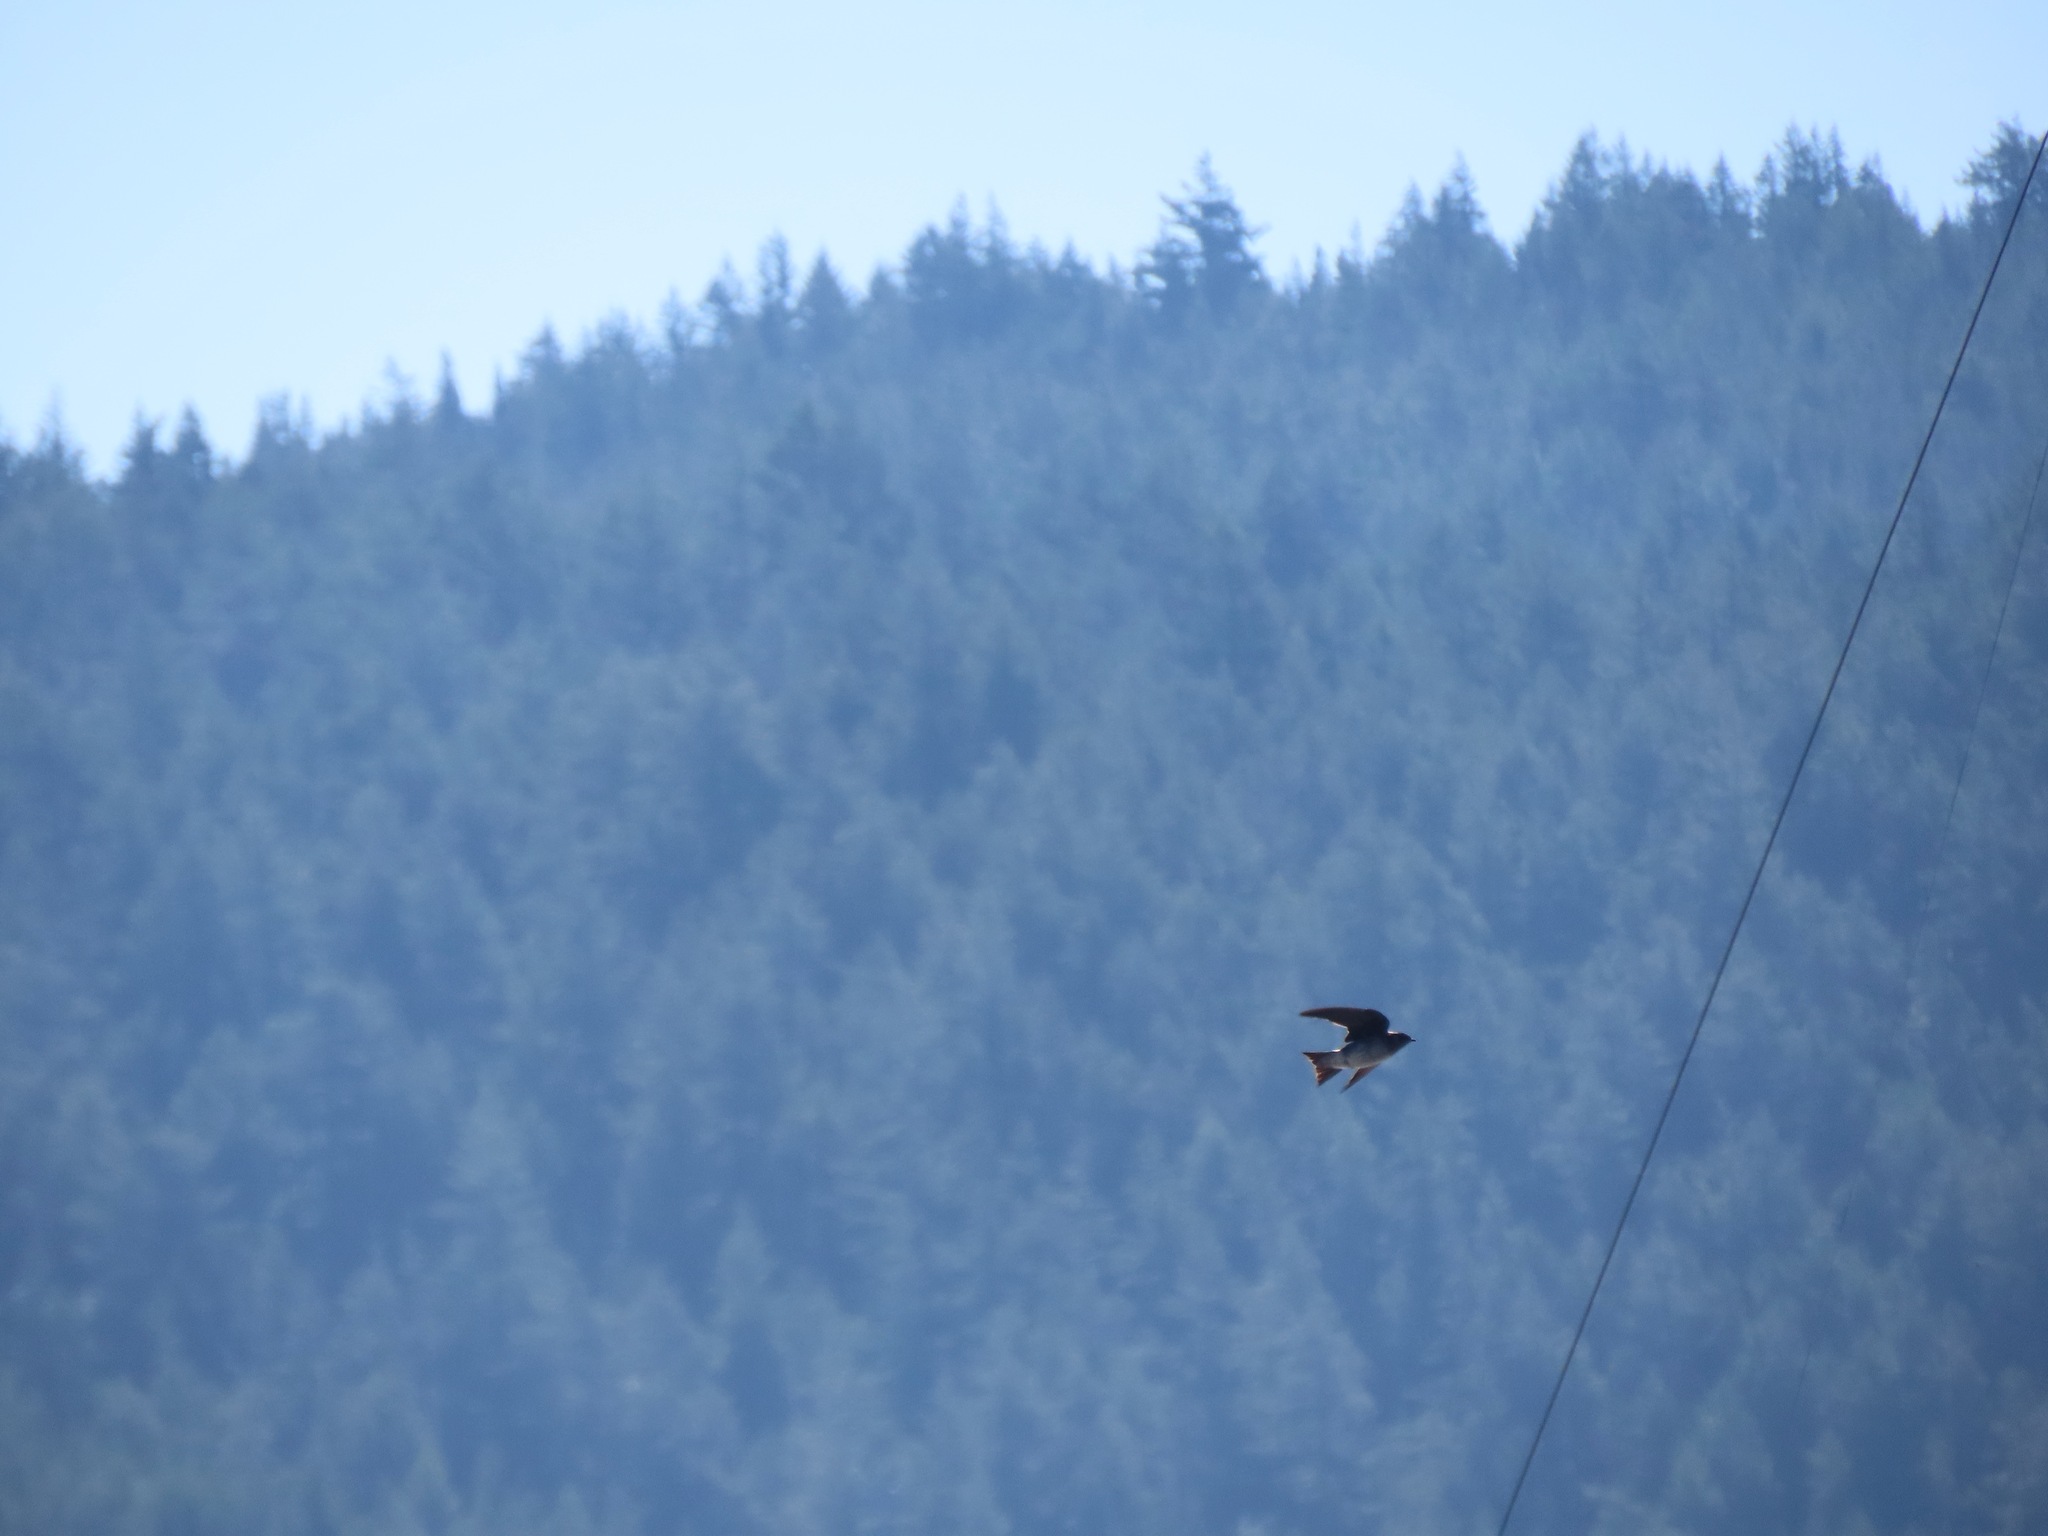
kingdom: Animalia
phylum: Chordata
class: Aves
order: Passeriformes
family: Hirundinidae
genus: Progne
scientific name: Progne subis
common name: Purple martin
